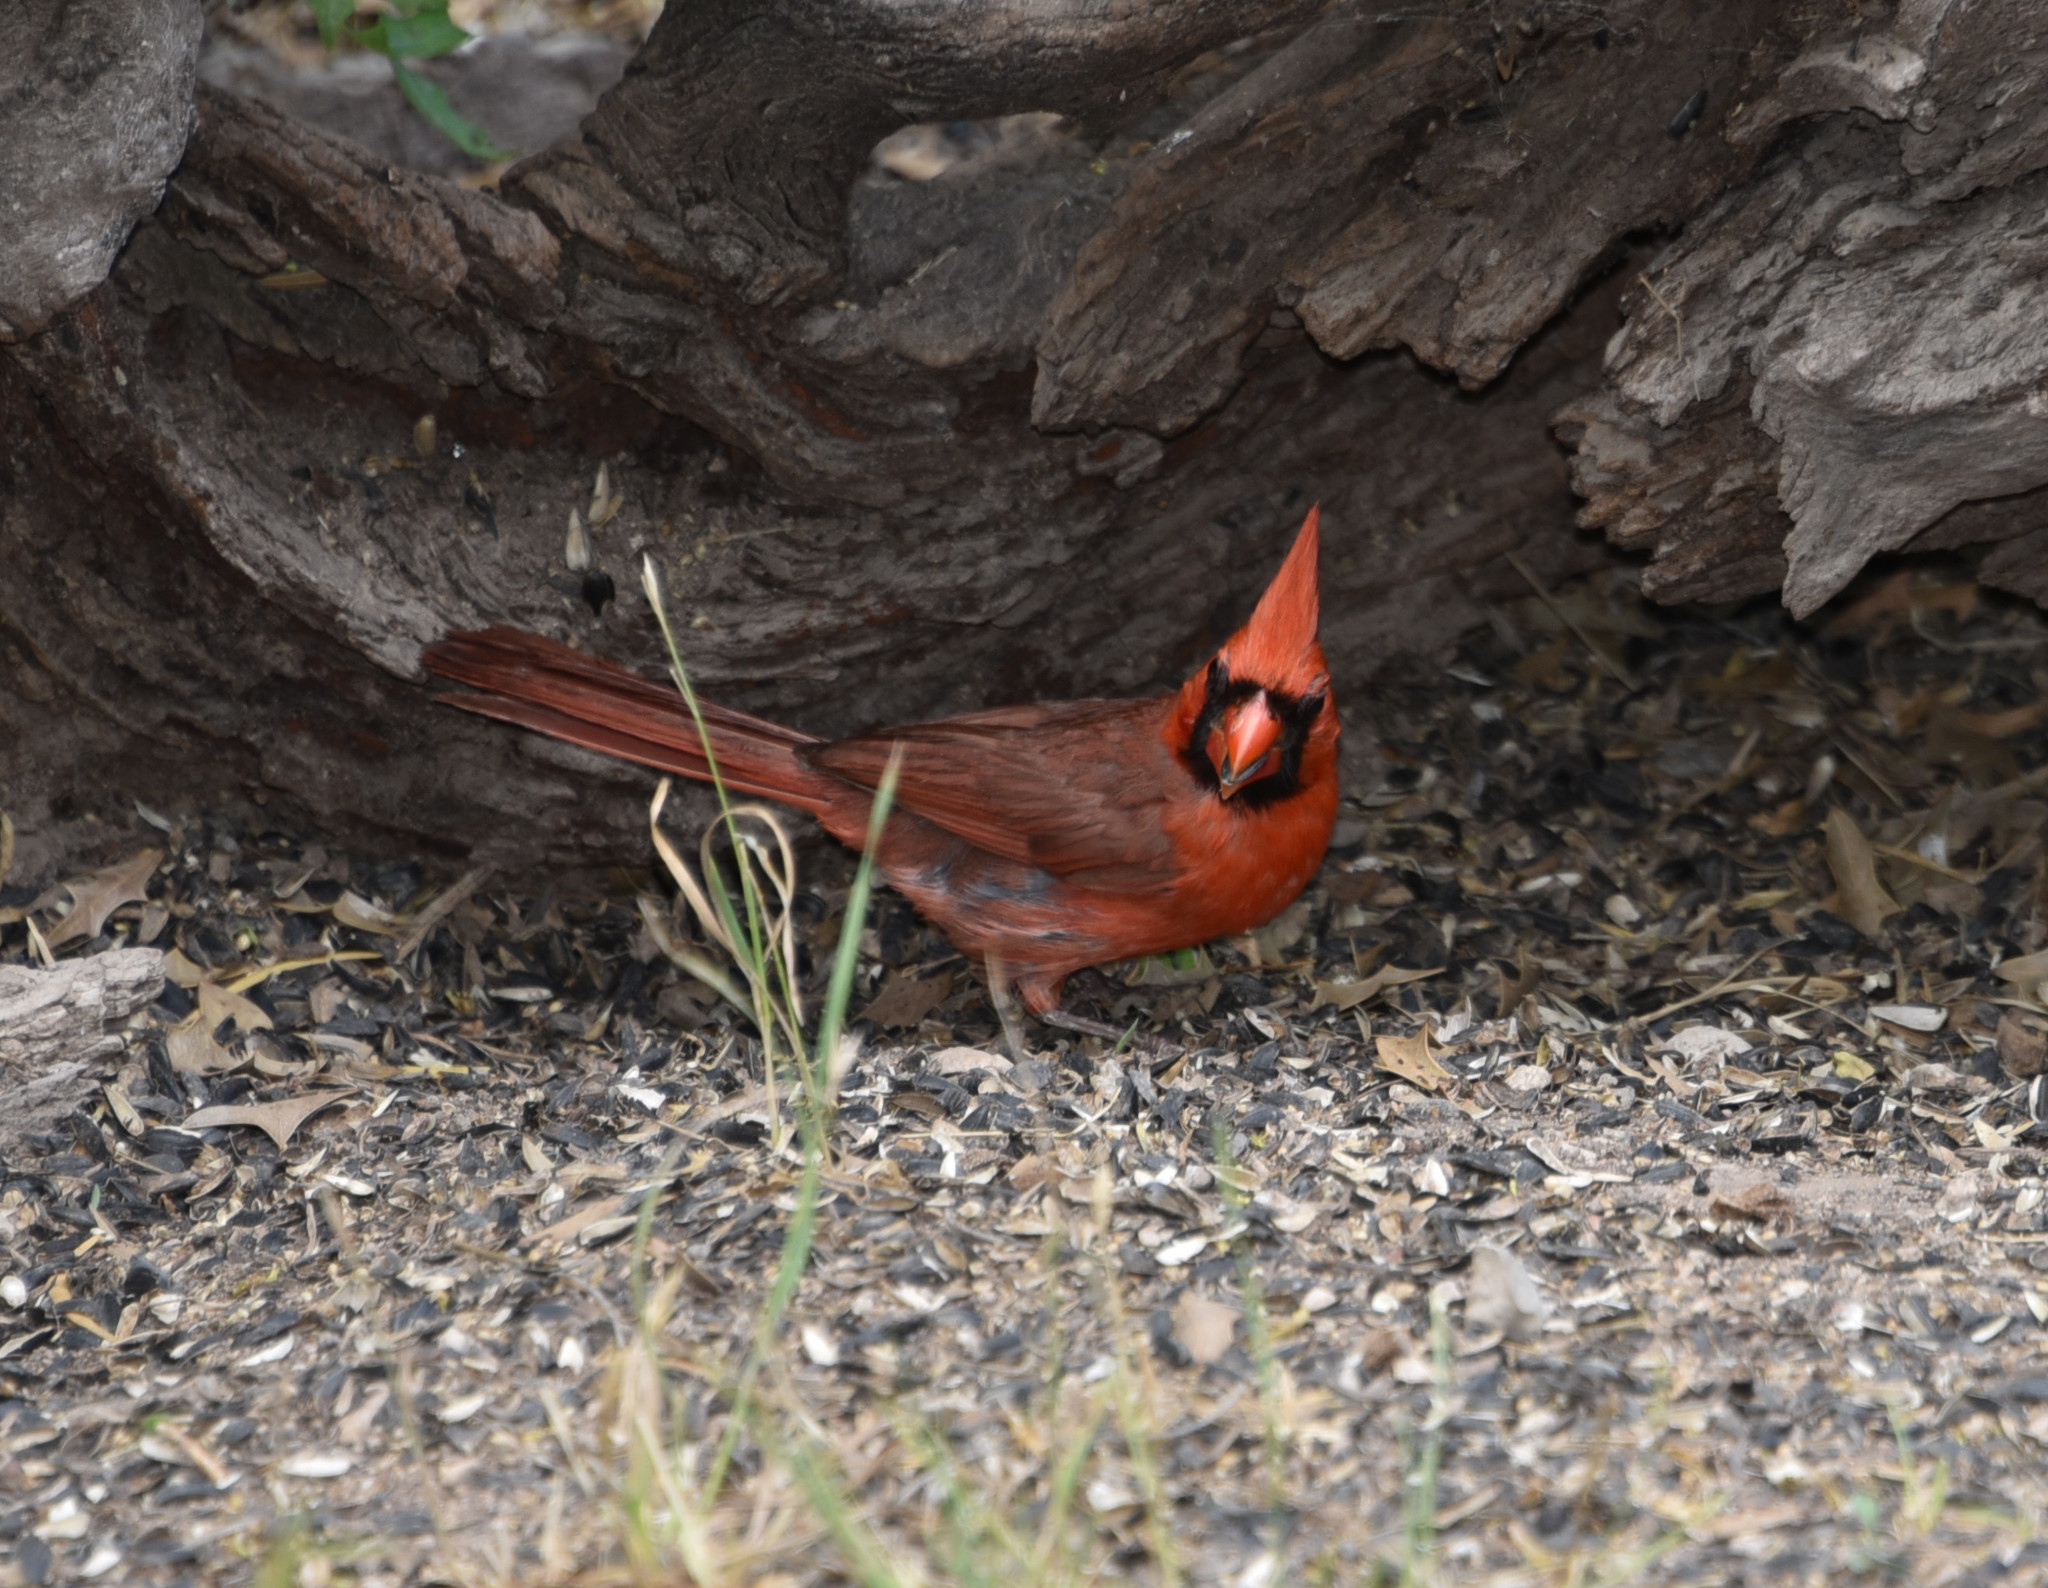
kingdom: Animalia
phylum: Chordata
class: Aves
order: Passeriformes
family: Cardinalidae
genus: Cardinalis
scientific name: Cardinalis cardinalis
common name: Northern cardinal
